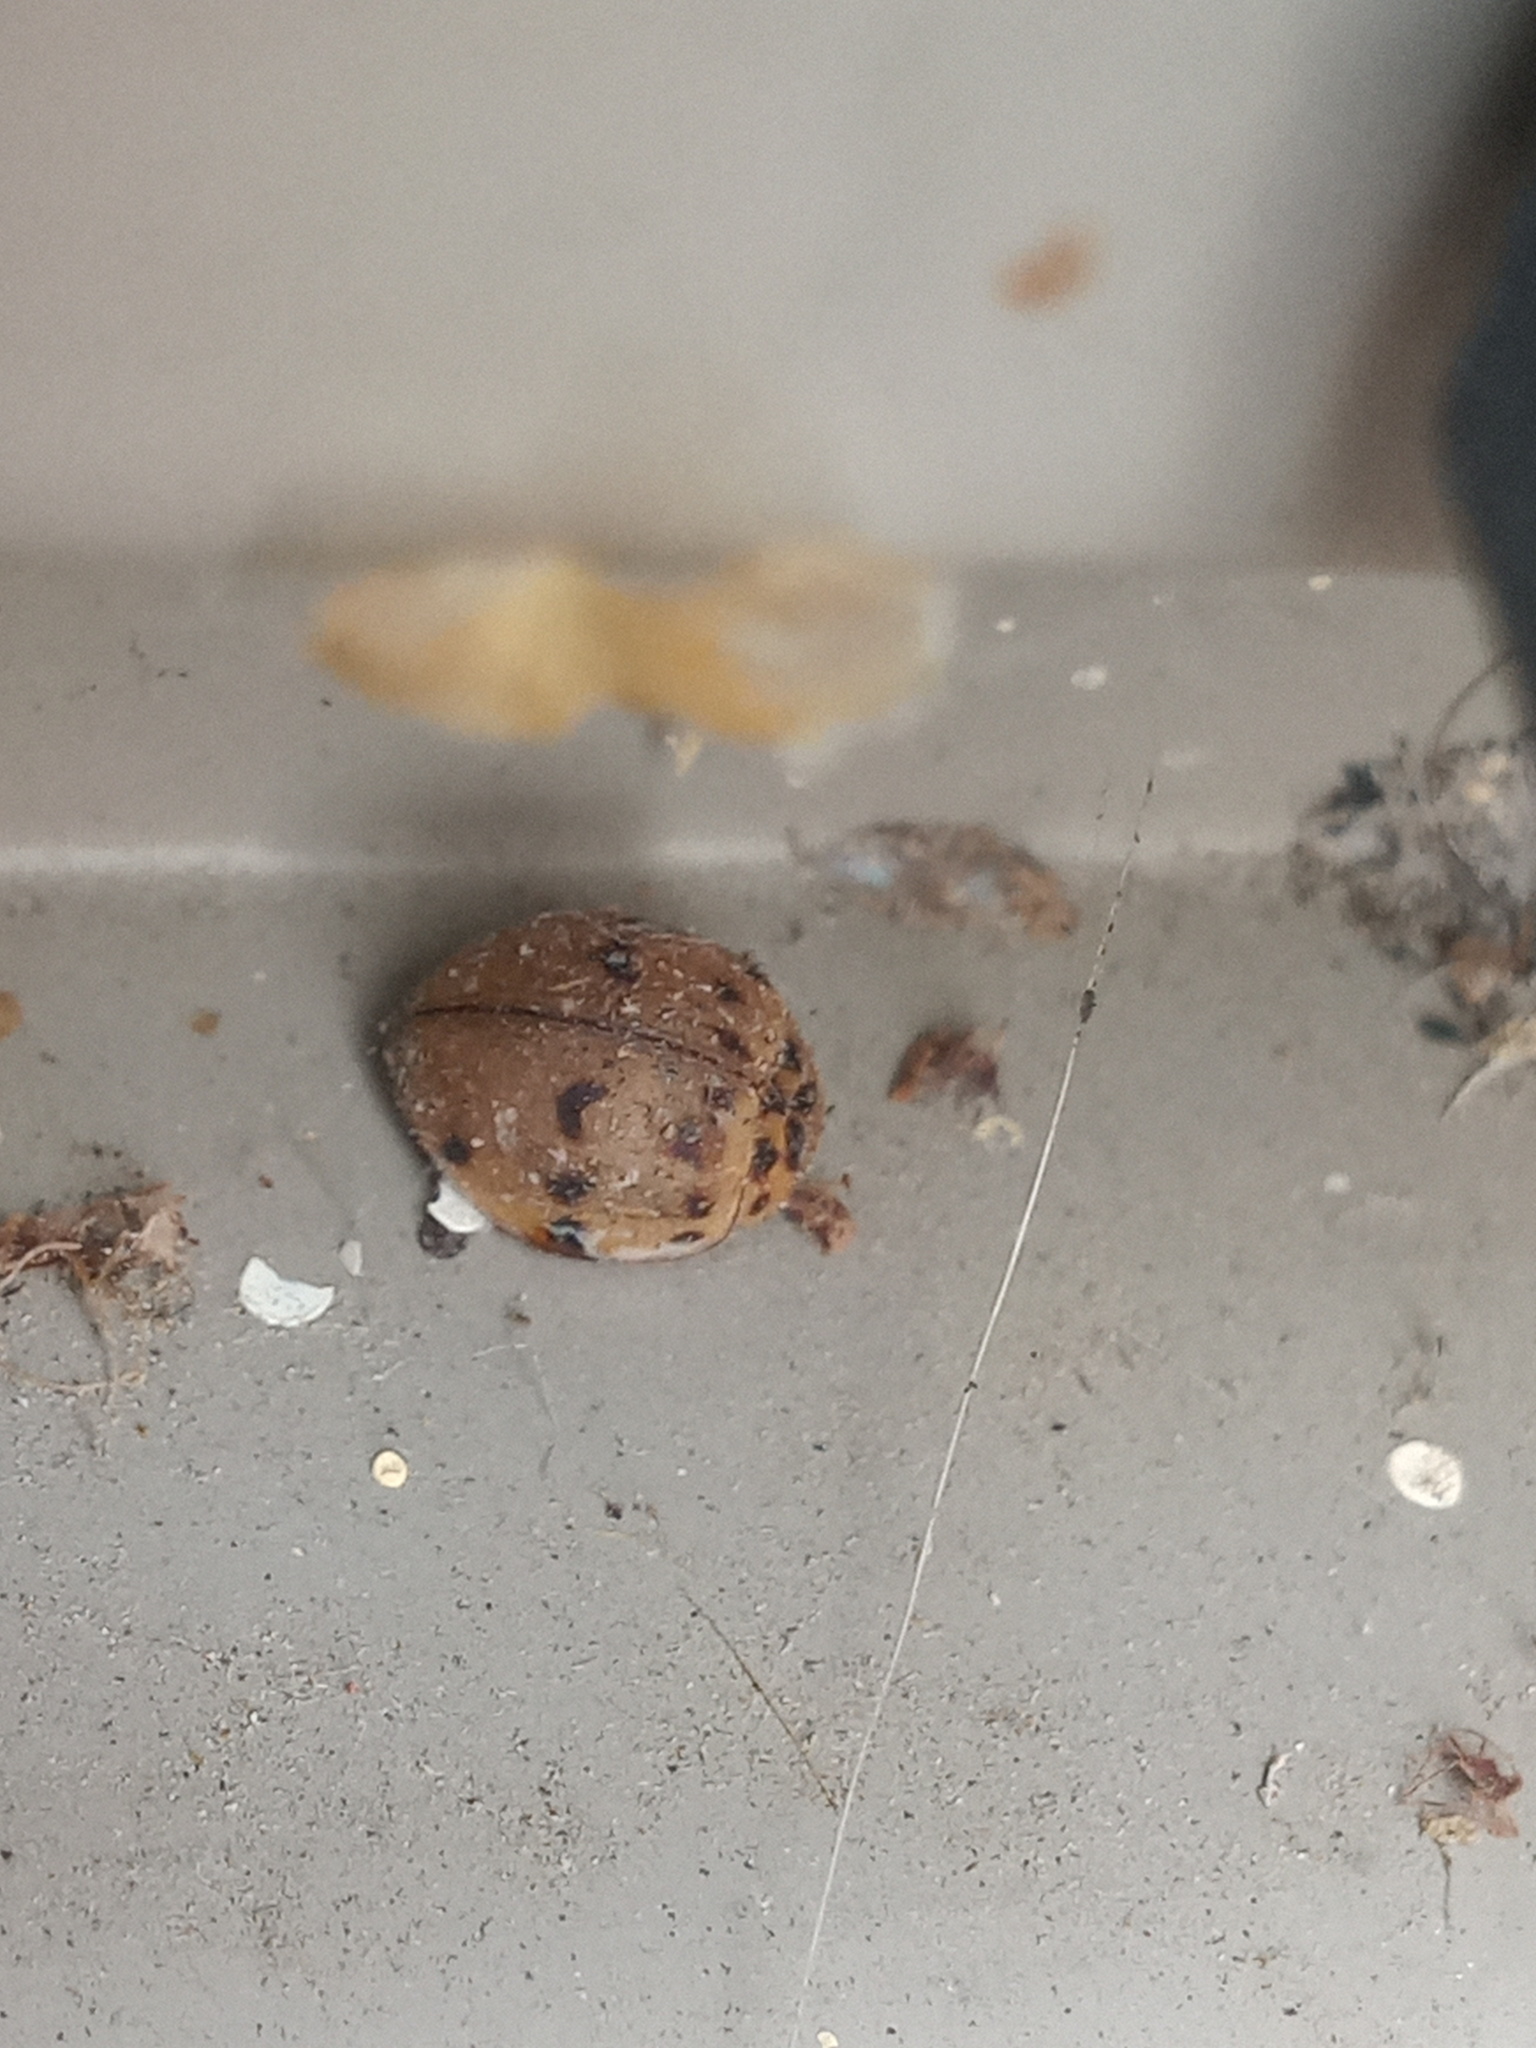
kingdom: Animalia
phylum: Arthropoda
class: Insecta
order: Coleoptera
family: Coccinellidae
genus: Olla
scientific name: Olla v-nigrum
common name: Ashy gray lady beetle
